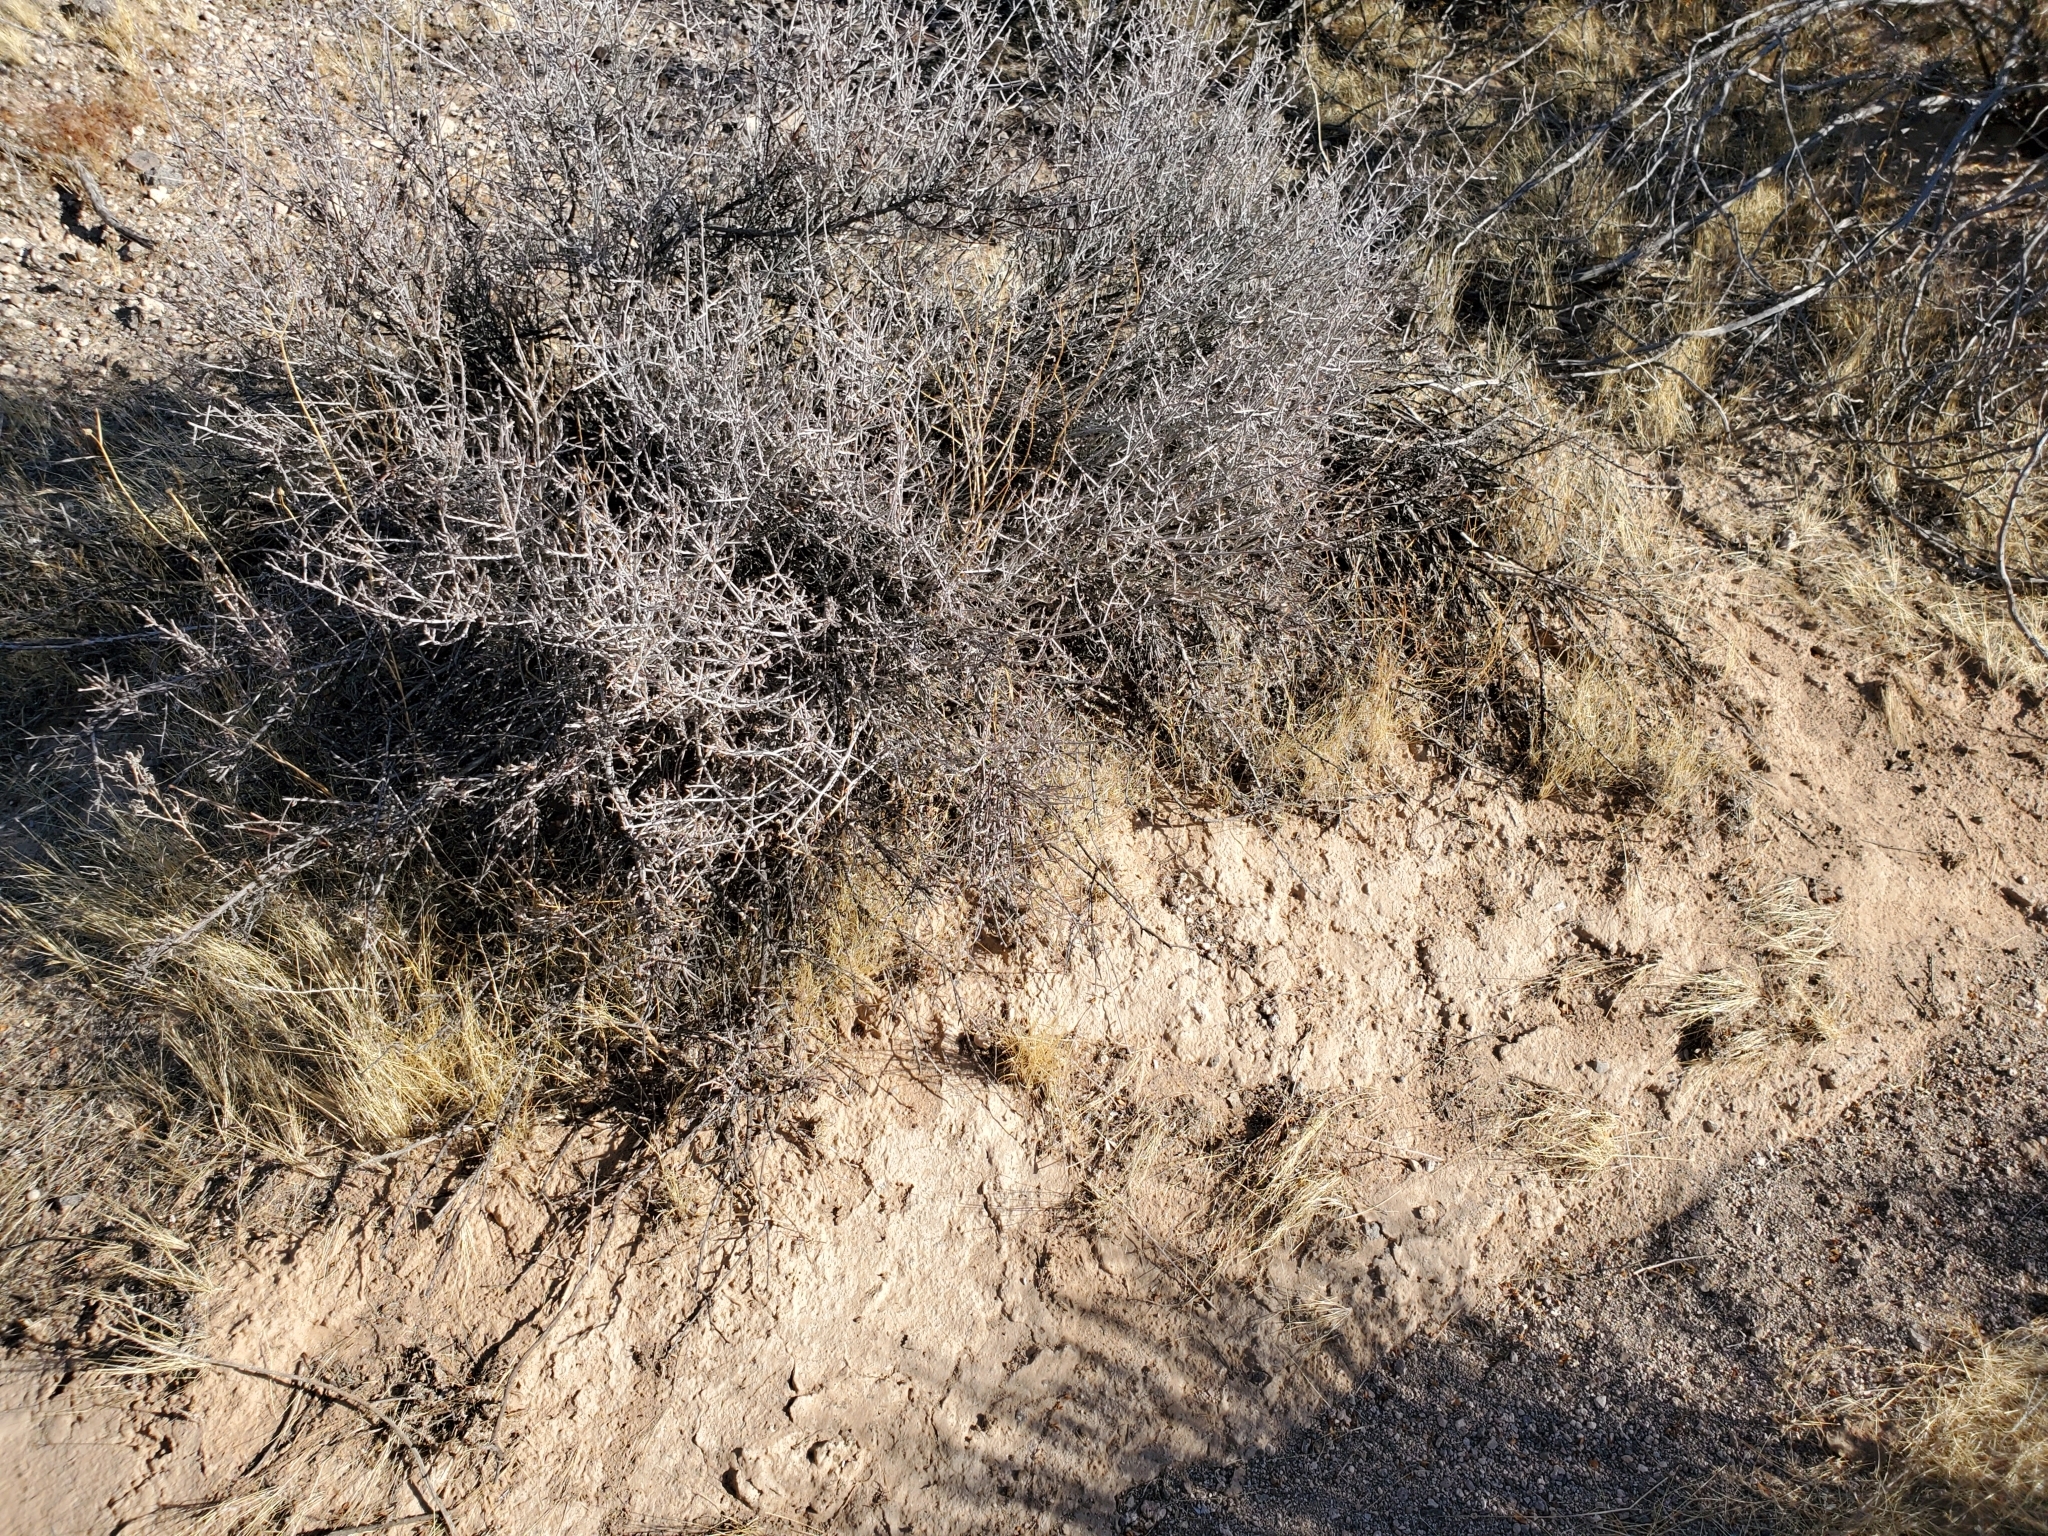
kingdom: Plantae
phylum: Tracheophyta
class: Magnoliopsida
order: Zygophyllales
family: Krameriaceae
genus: Krameria
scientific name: Krameria bicolor
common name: White ratany
